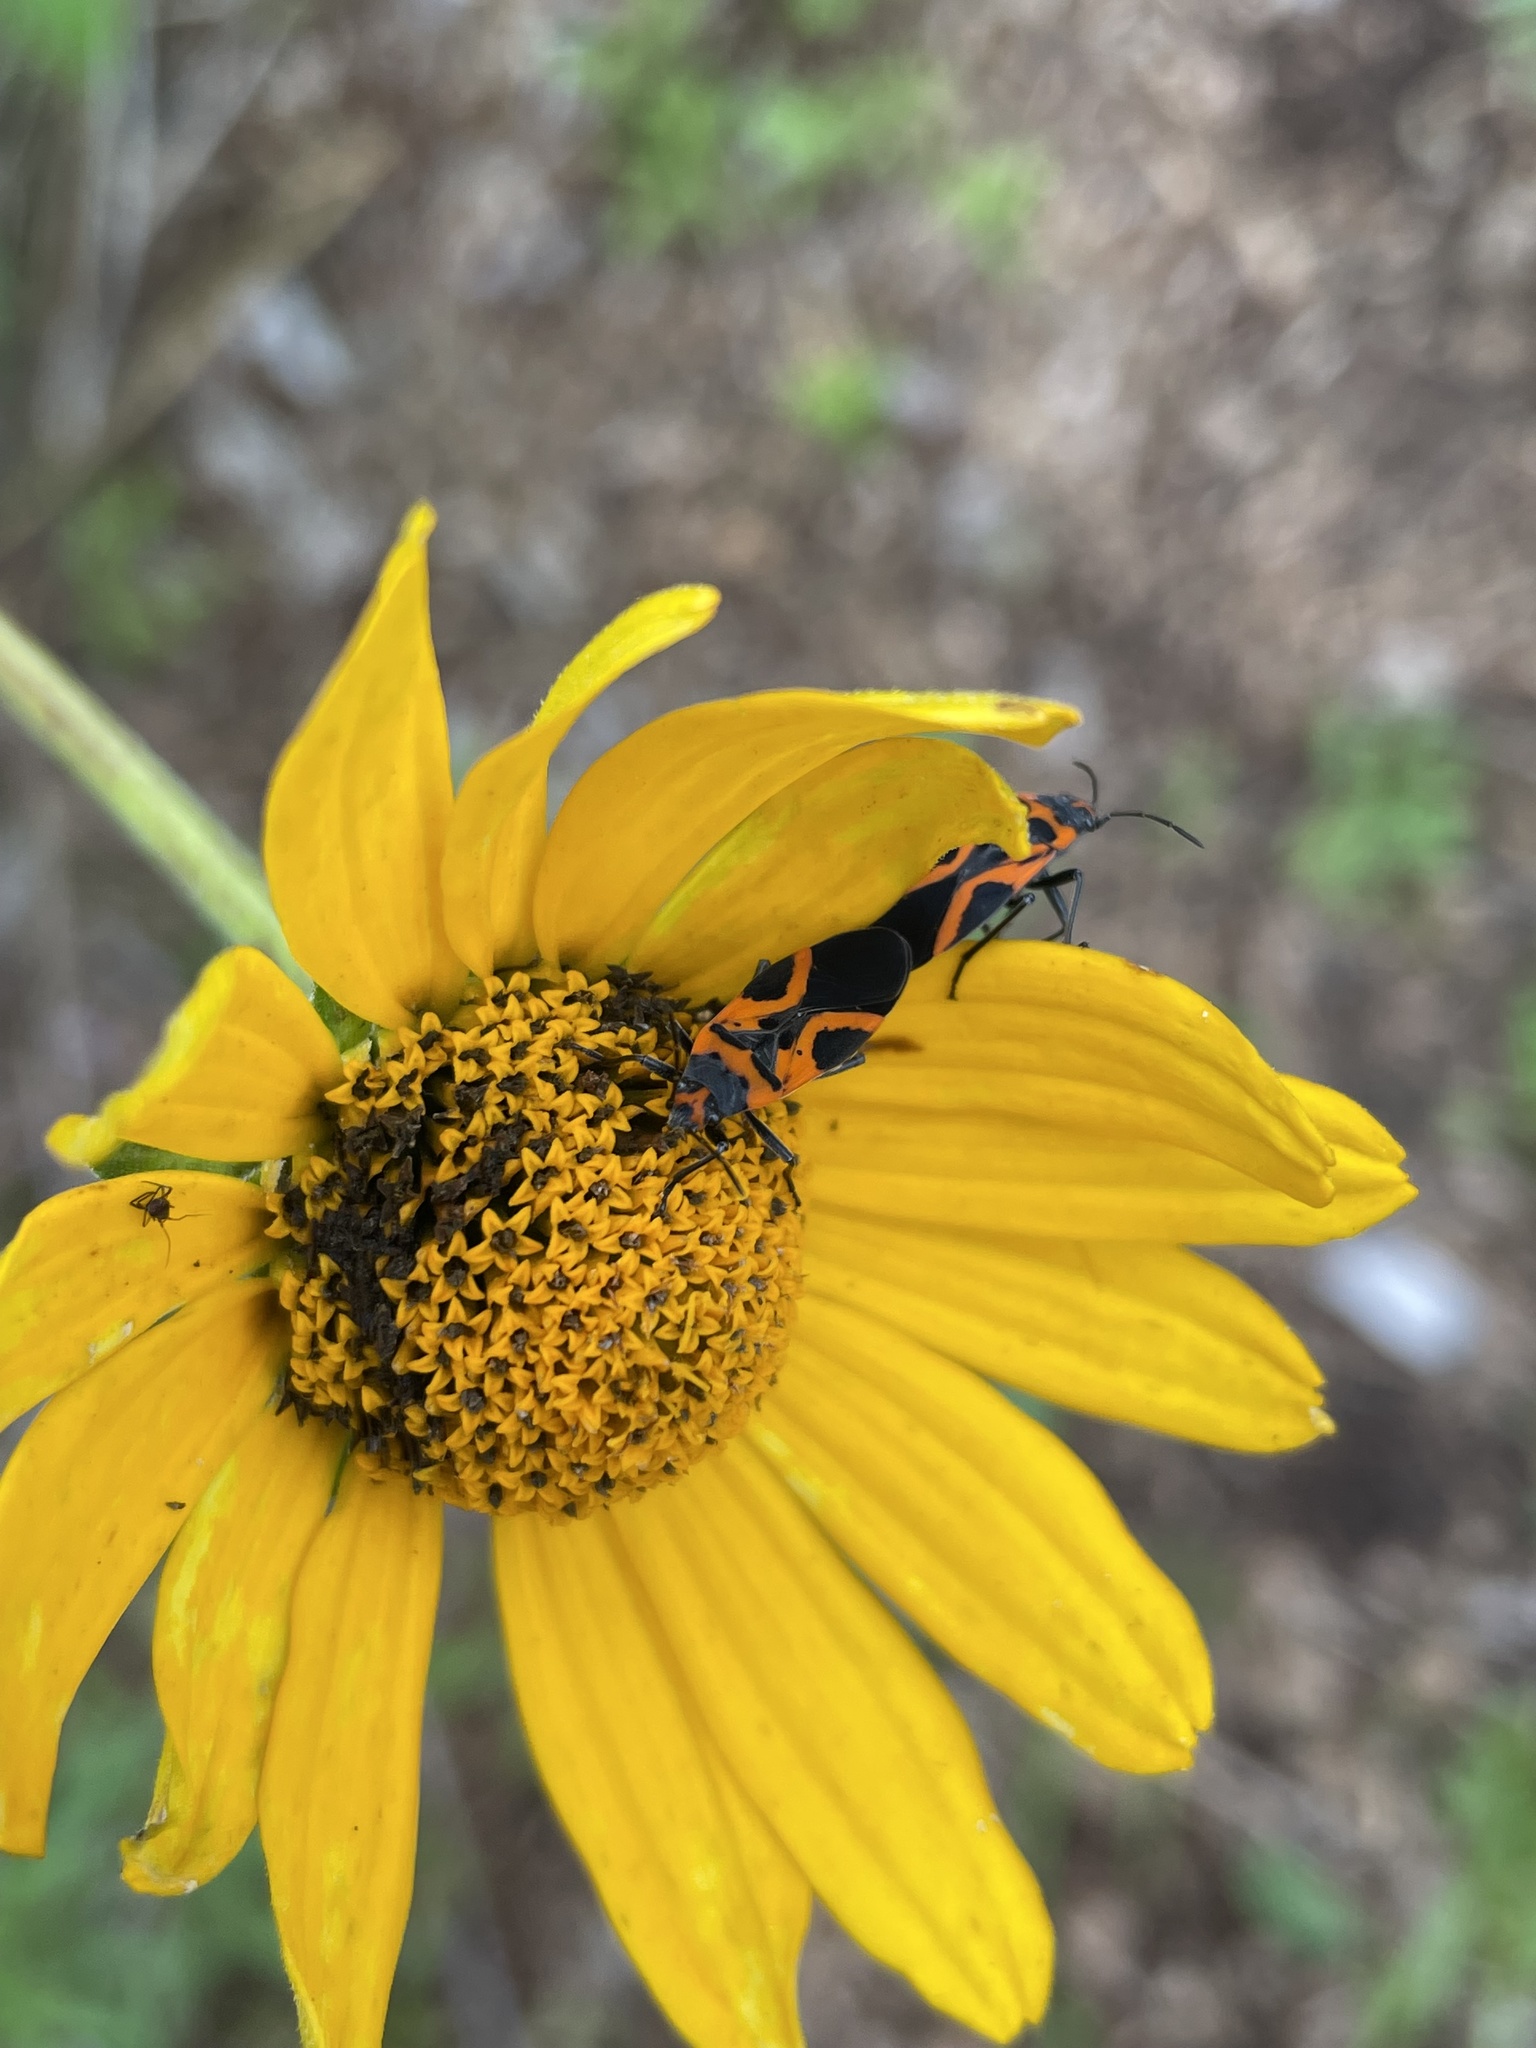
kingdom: Animalia
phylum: Arthropoda
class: Insecta
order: Hemiptera
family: Lygaeidae
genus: Lygaeus
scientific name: Lygaeus turcicus
